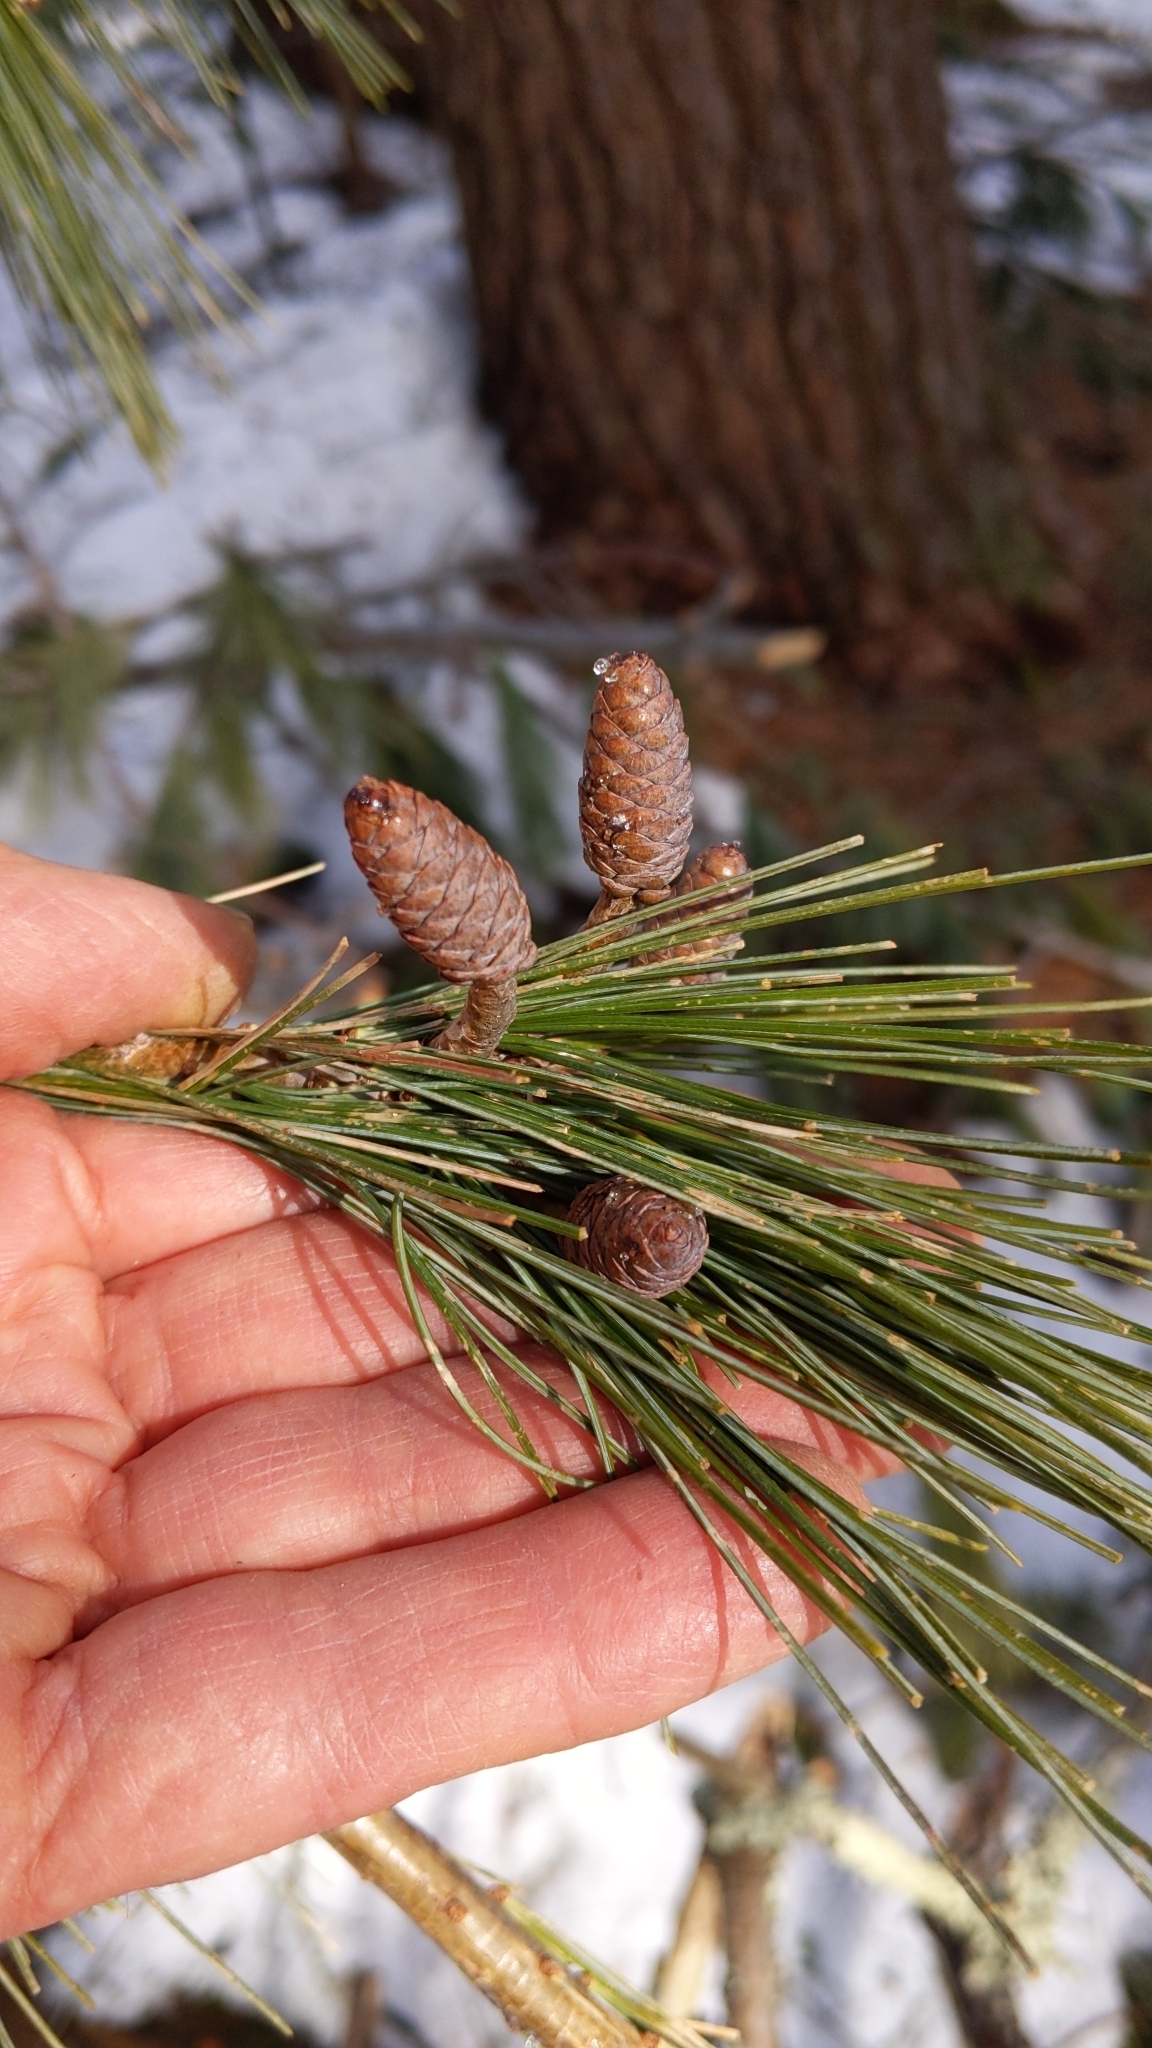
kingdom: Plantae
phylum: Tracheophyta
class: Pinopsida
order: Pinales
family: Pinaceae
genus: Pinus
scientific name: Pinus strobus
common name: Weymouth pine
